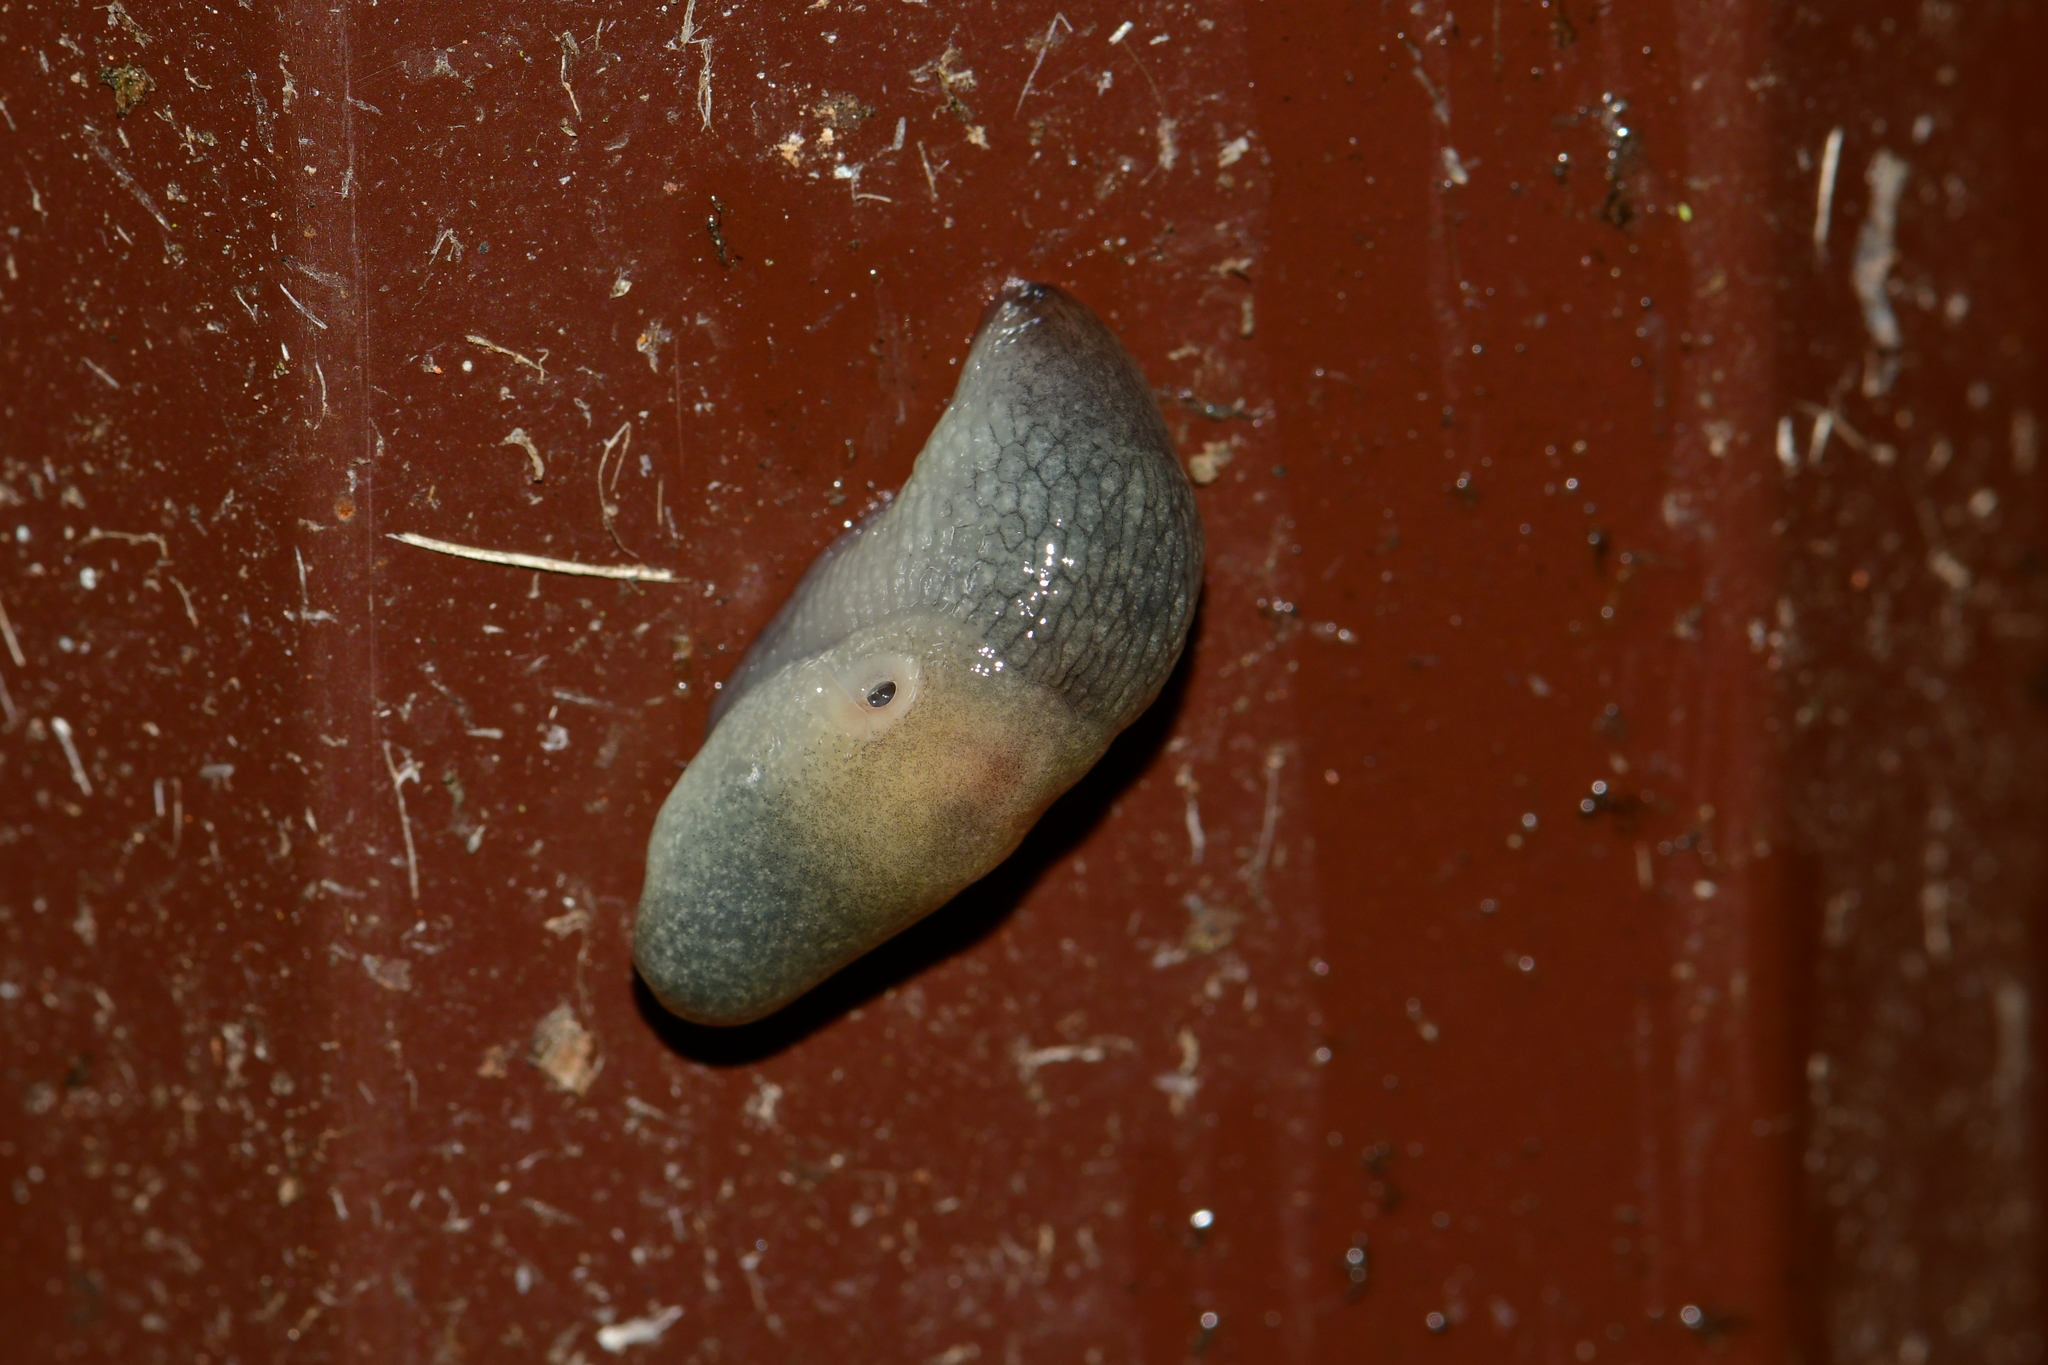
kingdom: Animalia
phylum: Mollusca
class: Gastropoda
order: Stylommatophora
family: Agriolimacidae
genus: Krynickillus
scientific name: Krynickillus melanocephalus
